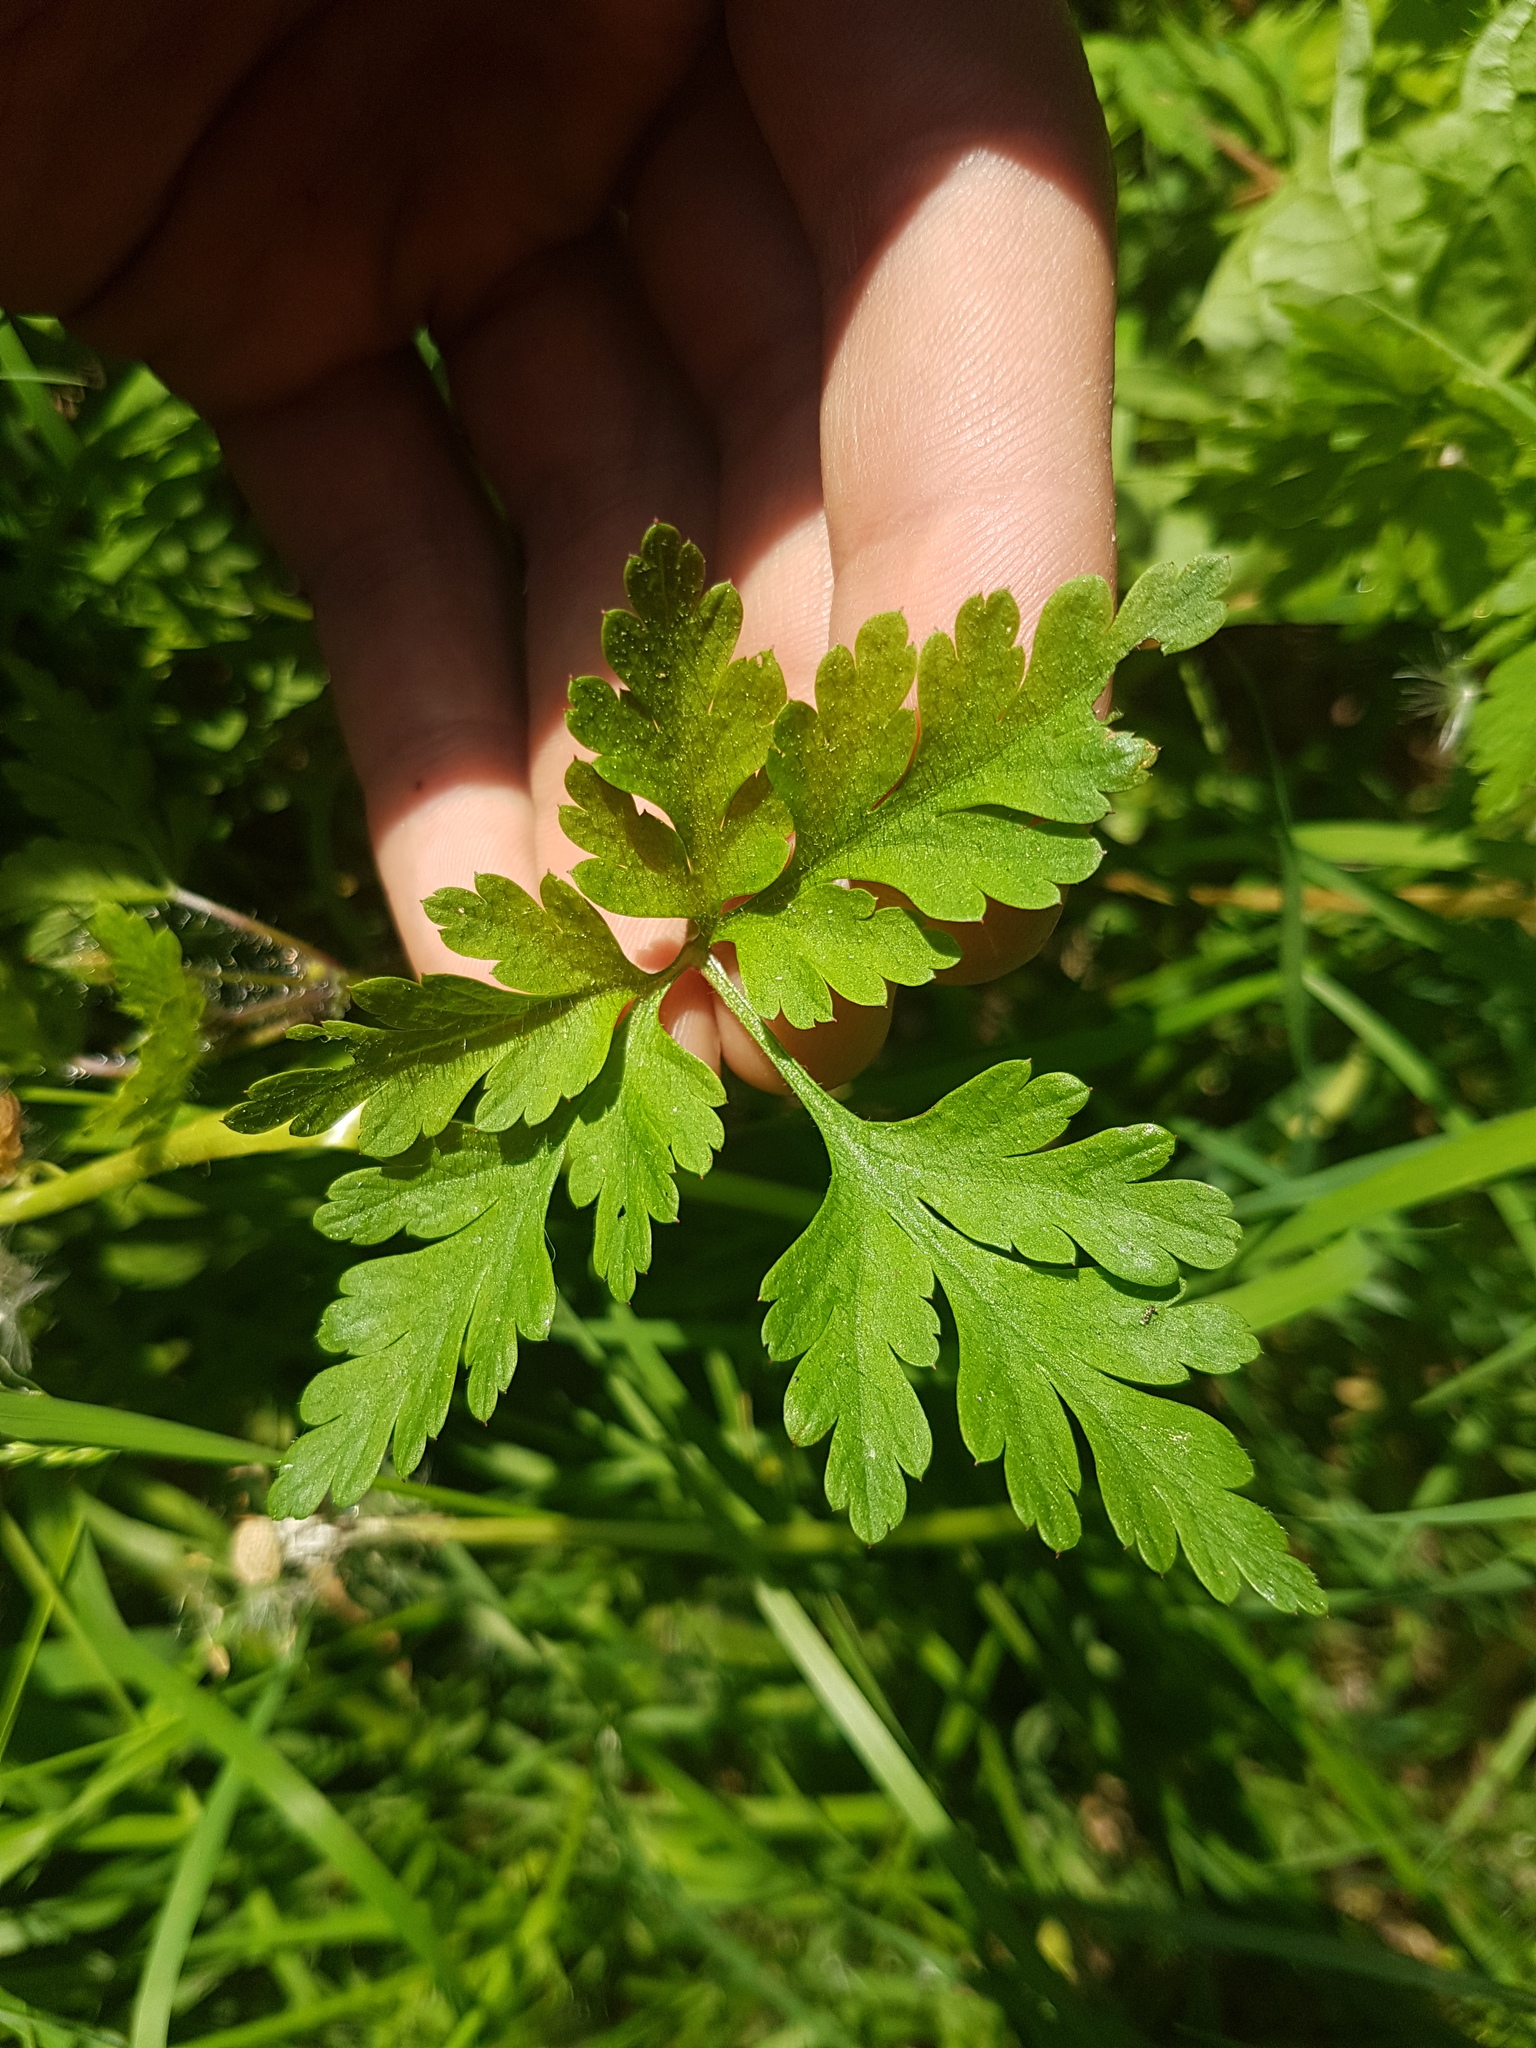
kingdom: Plantae
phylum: Tracheophyta
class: Magnoliopsida
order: Geraniales
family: Geraniaceae
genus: Geranium
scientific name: Geranium robertianum
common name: Herb-robert
